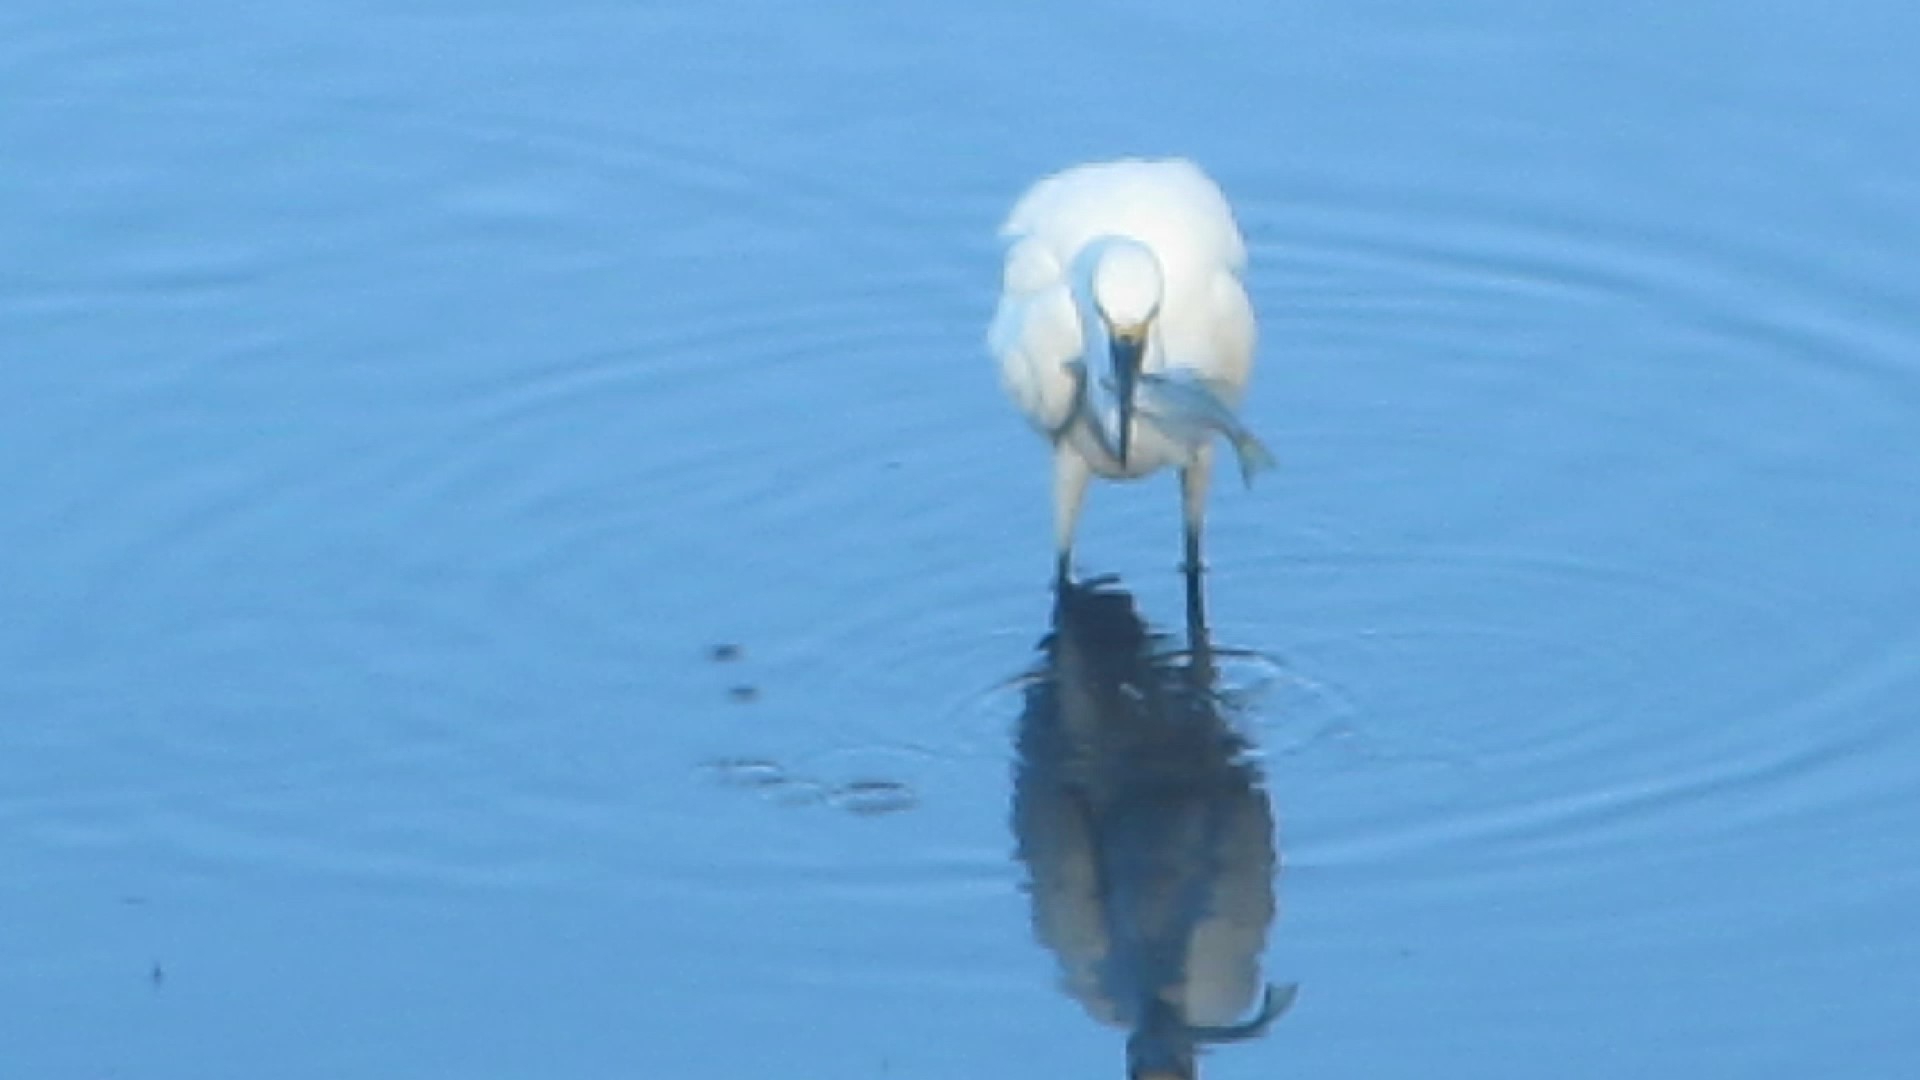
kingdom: Animalia
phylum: Chordata
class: Aves
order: Pelecaniformes
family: Ardeidae
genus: Egretta
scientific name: Egretta thula
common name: Snowy egret
